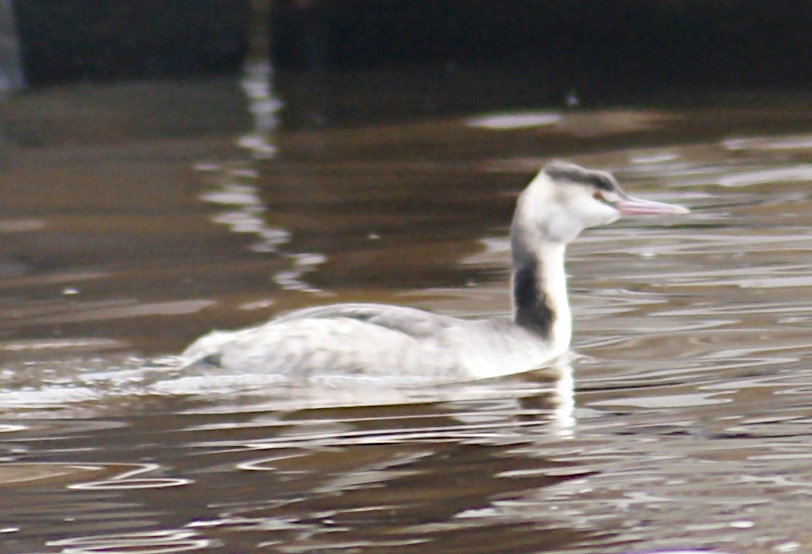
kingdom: Animalia
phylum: Chordata
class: Aves
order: Podicipediformes
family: Podicipedidae
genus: Podiceps
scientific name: Podiceps cristatus
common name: Great crested grebe
